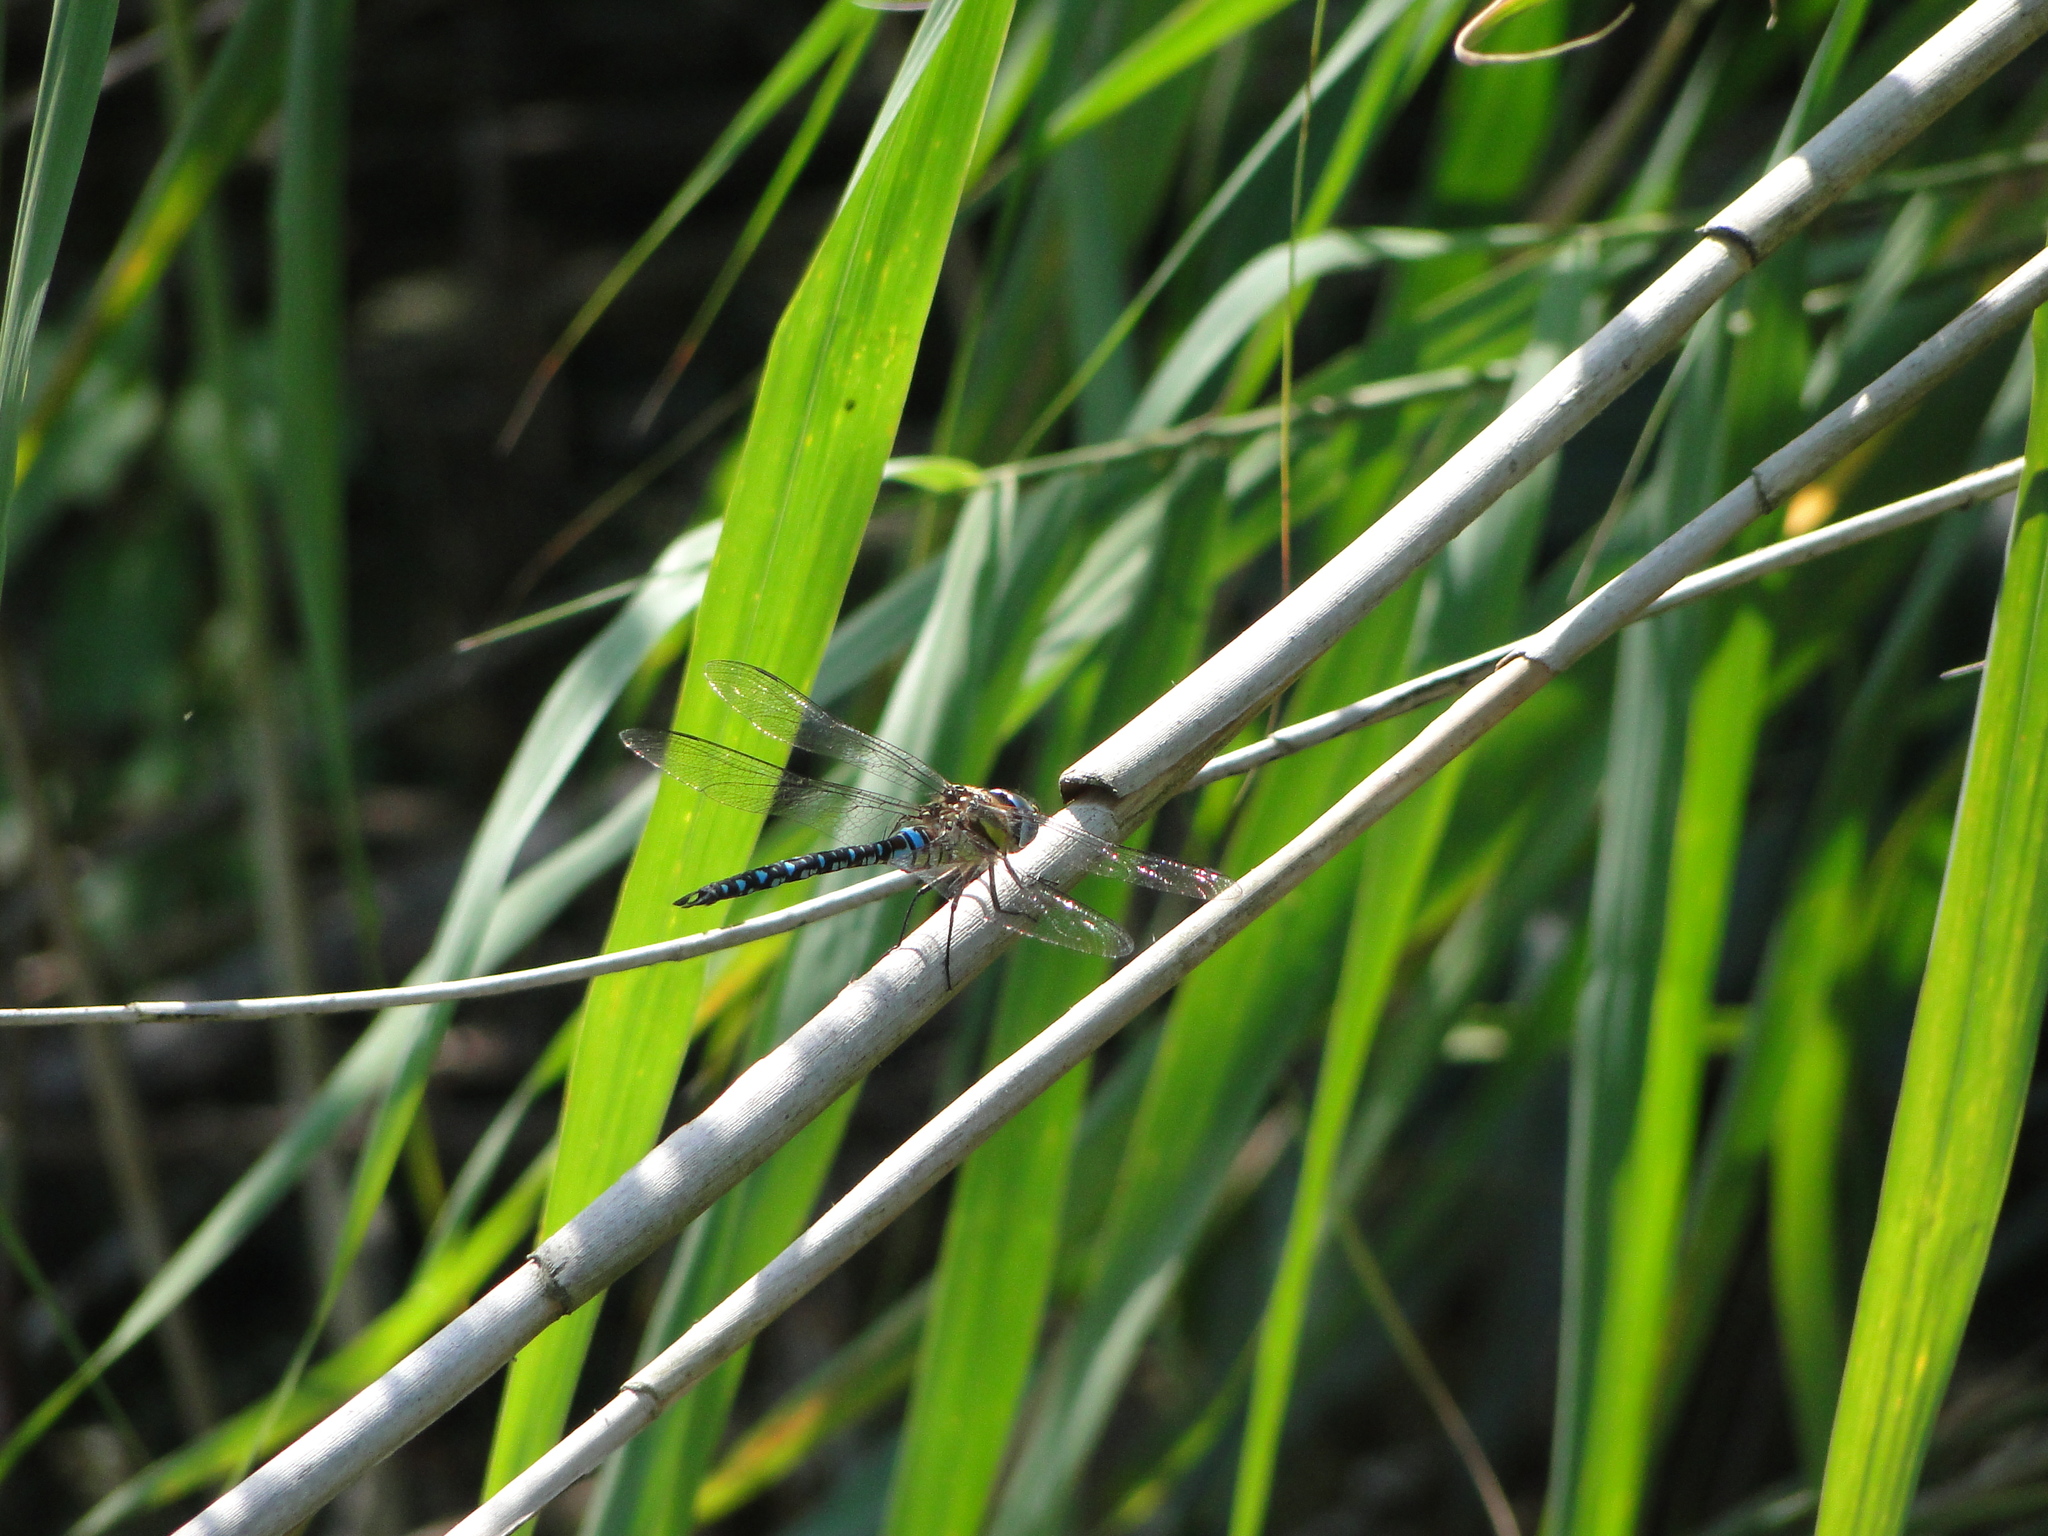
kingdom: Animalia
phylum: Arthropoda
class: Insecta
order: Odonata
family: Aeshnidae
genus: Aeshna
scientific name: Aeshna mixta
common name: Migrant hawker
